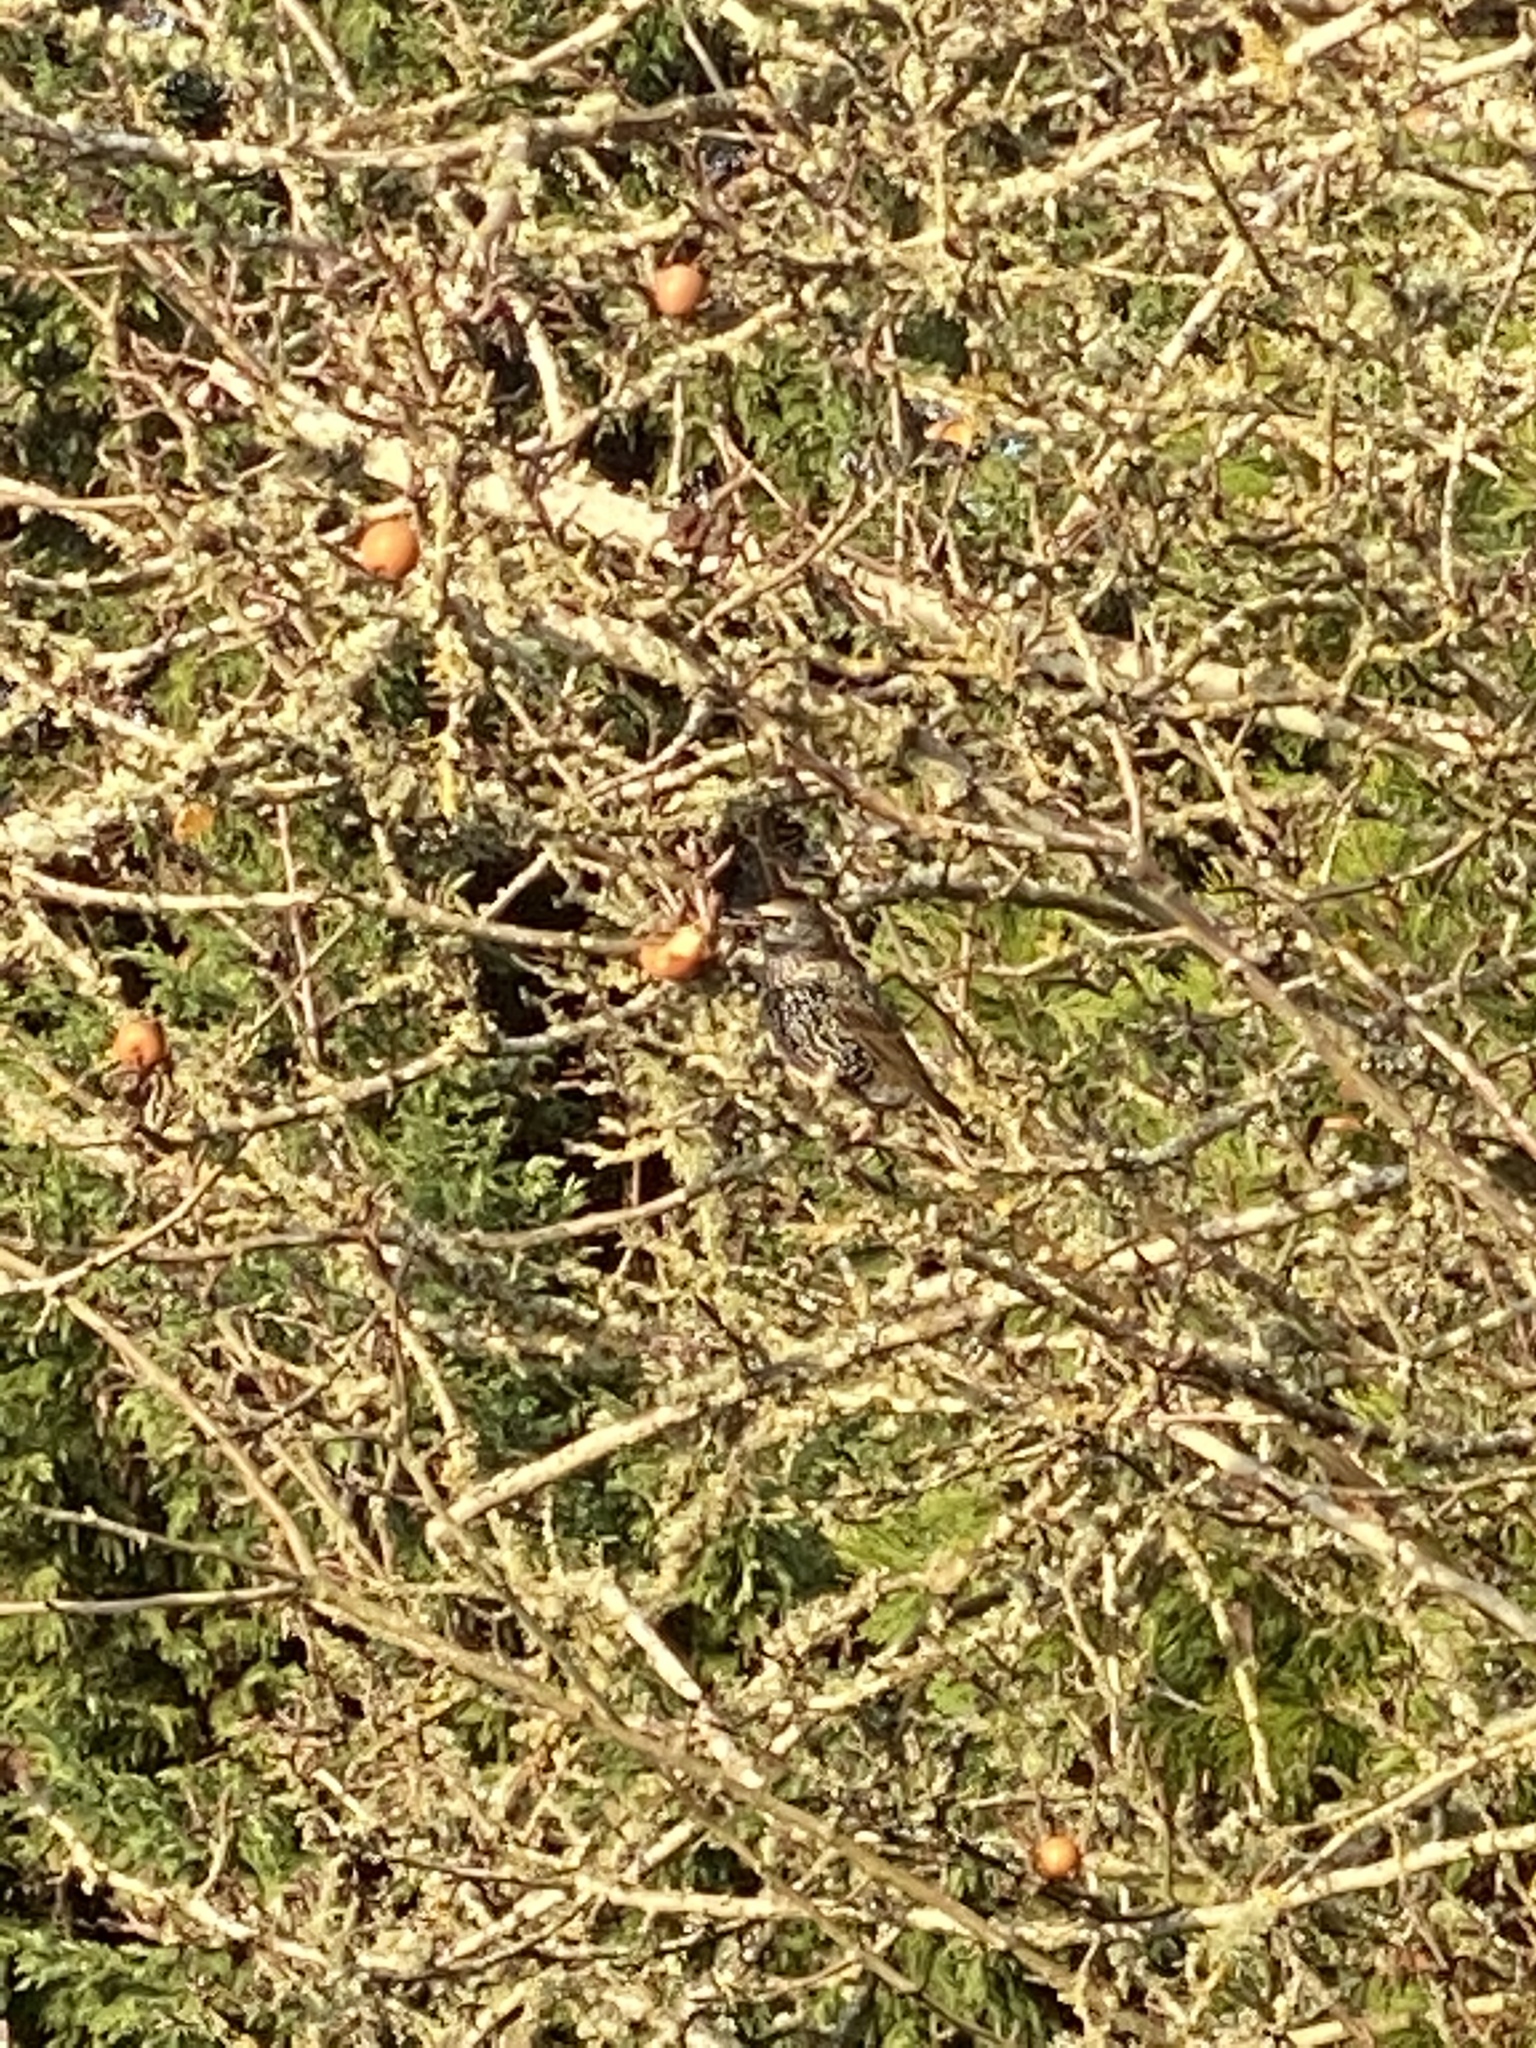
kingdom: Animalia
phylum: Chordata
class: Aves
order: Passeriformes
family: Sturnidae
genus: Sturnus
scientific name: Sturnus vulgaris
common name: Common starling
